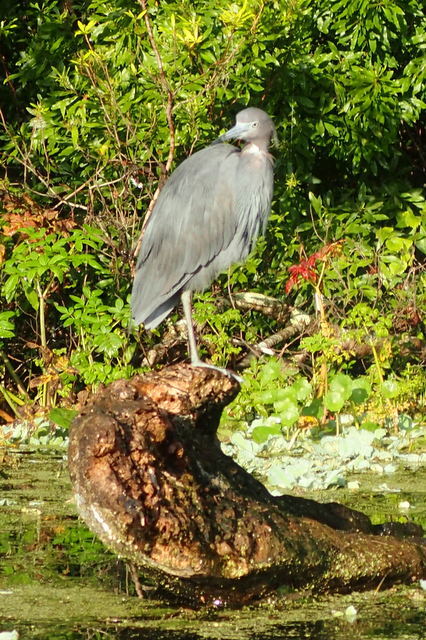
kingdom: Animalia
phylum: Chordata
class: Aves
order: Pelecaniformes
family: Ardeidae
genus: Egretta
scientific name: Egretta caerulea
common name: Little blue heron
